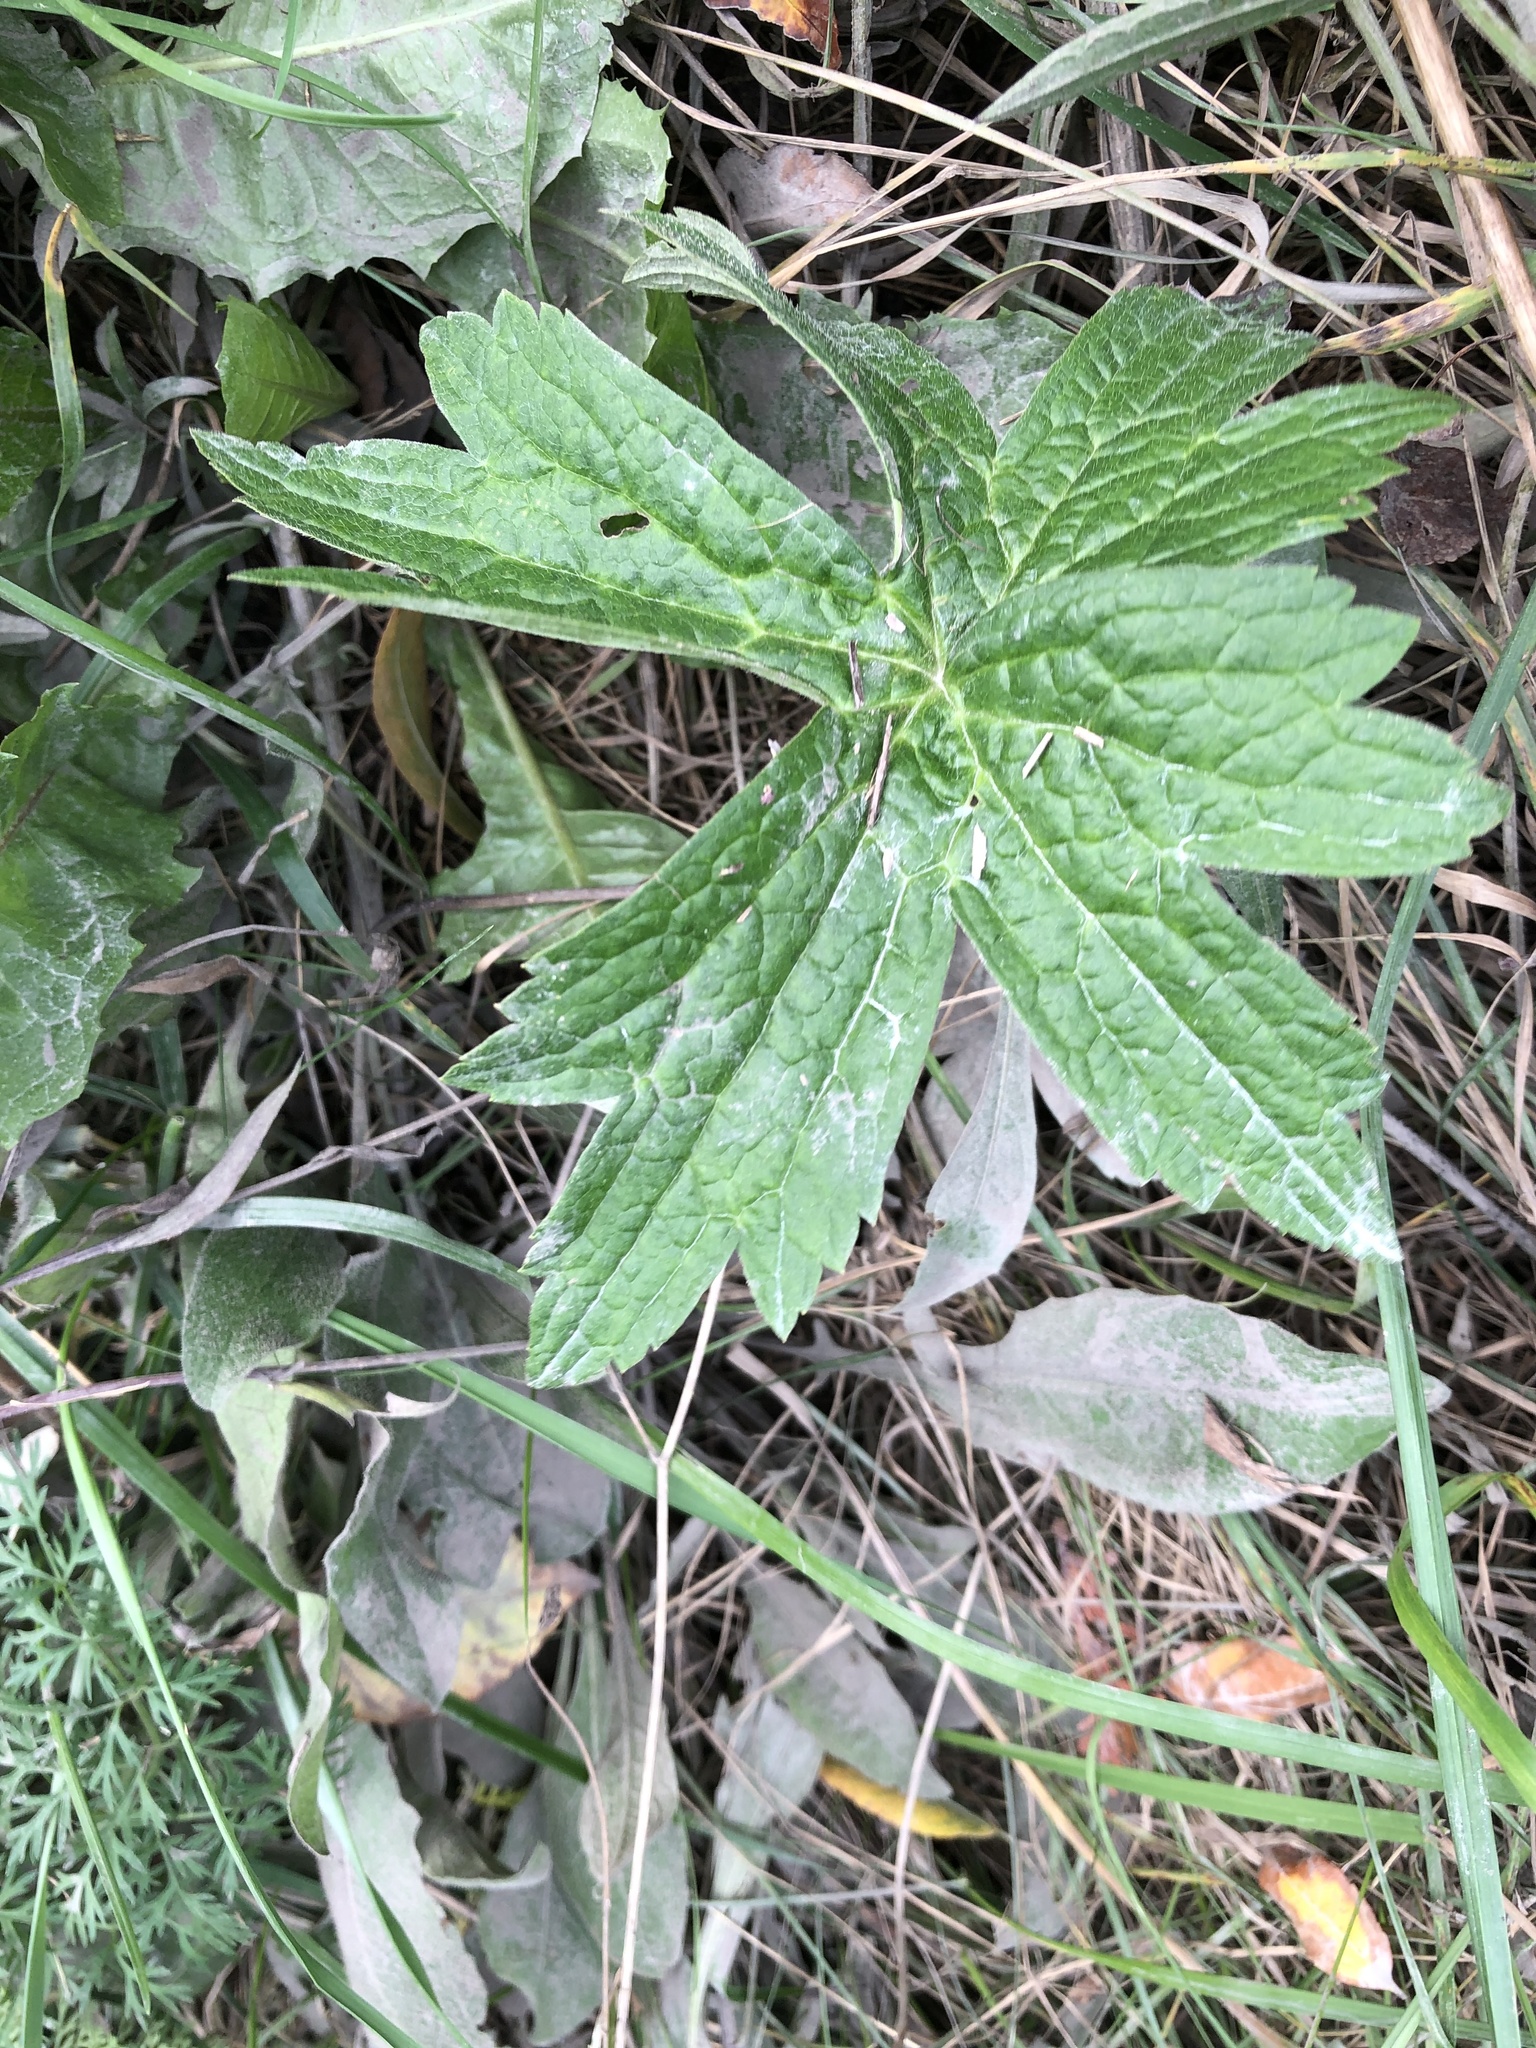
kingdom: Plantae
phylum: Tracheophyta
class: Magnoliopsida
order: Ranunculales
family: Ranunculaceae
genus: Anemonastrum
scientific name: Anemonastrum canadense
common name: Canada anemone
